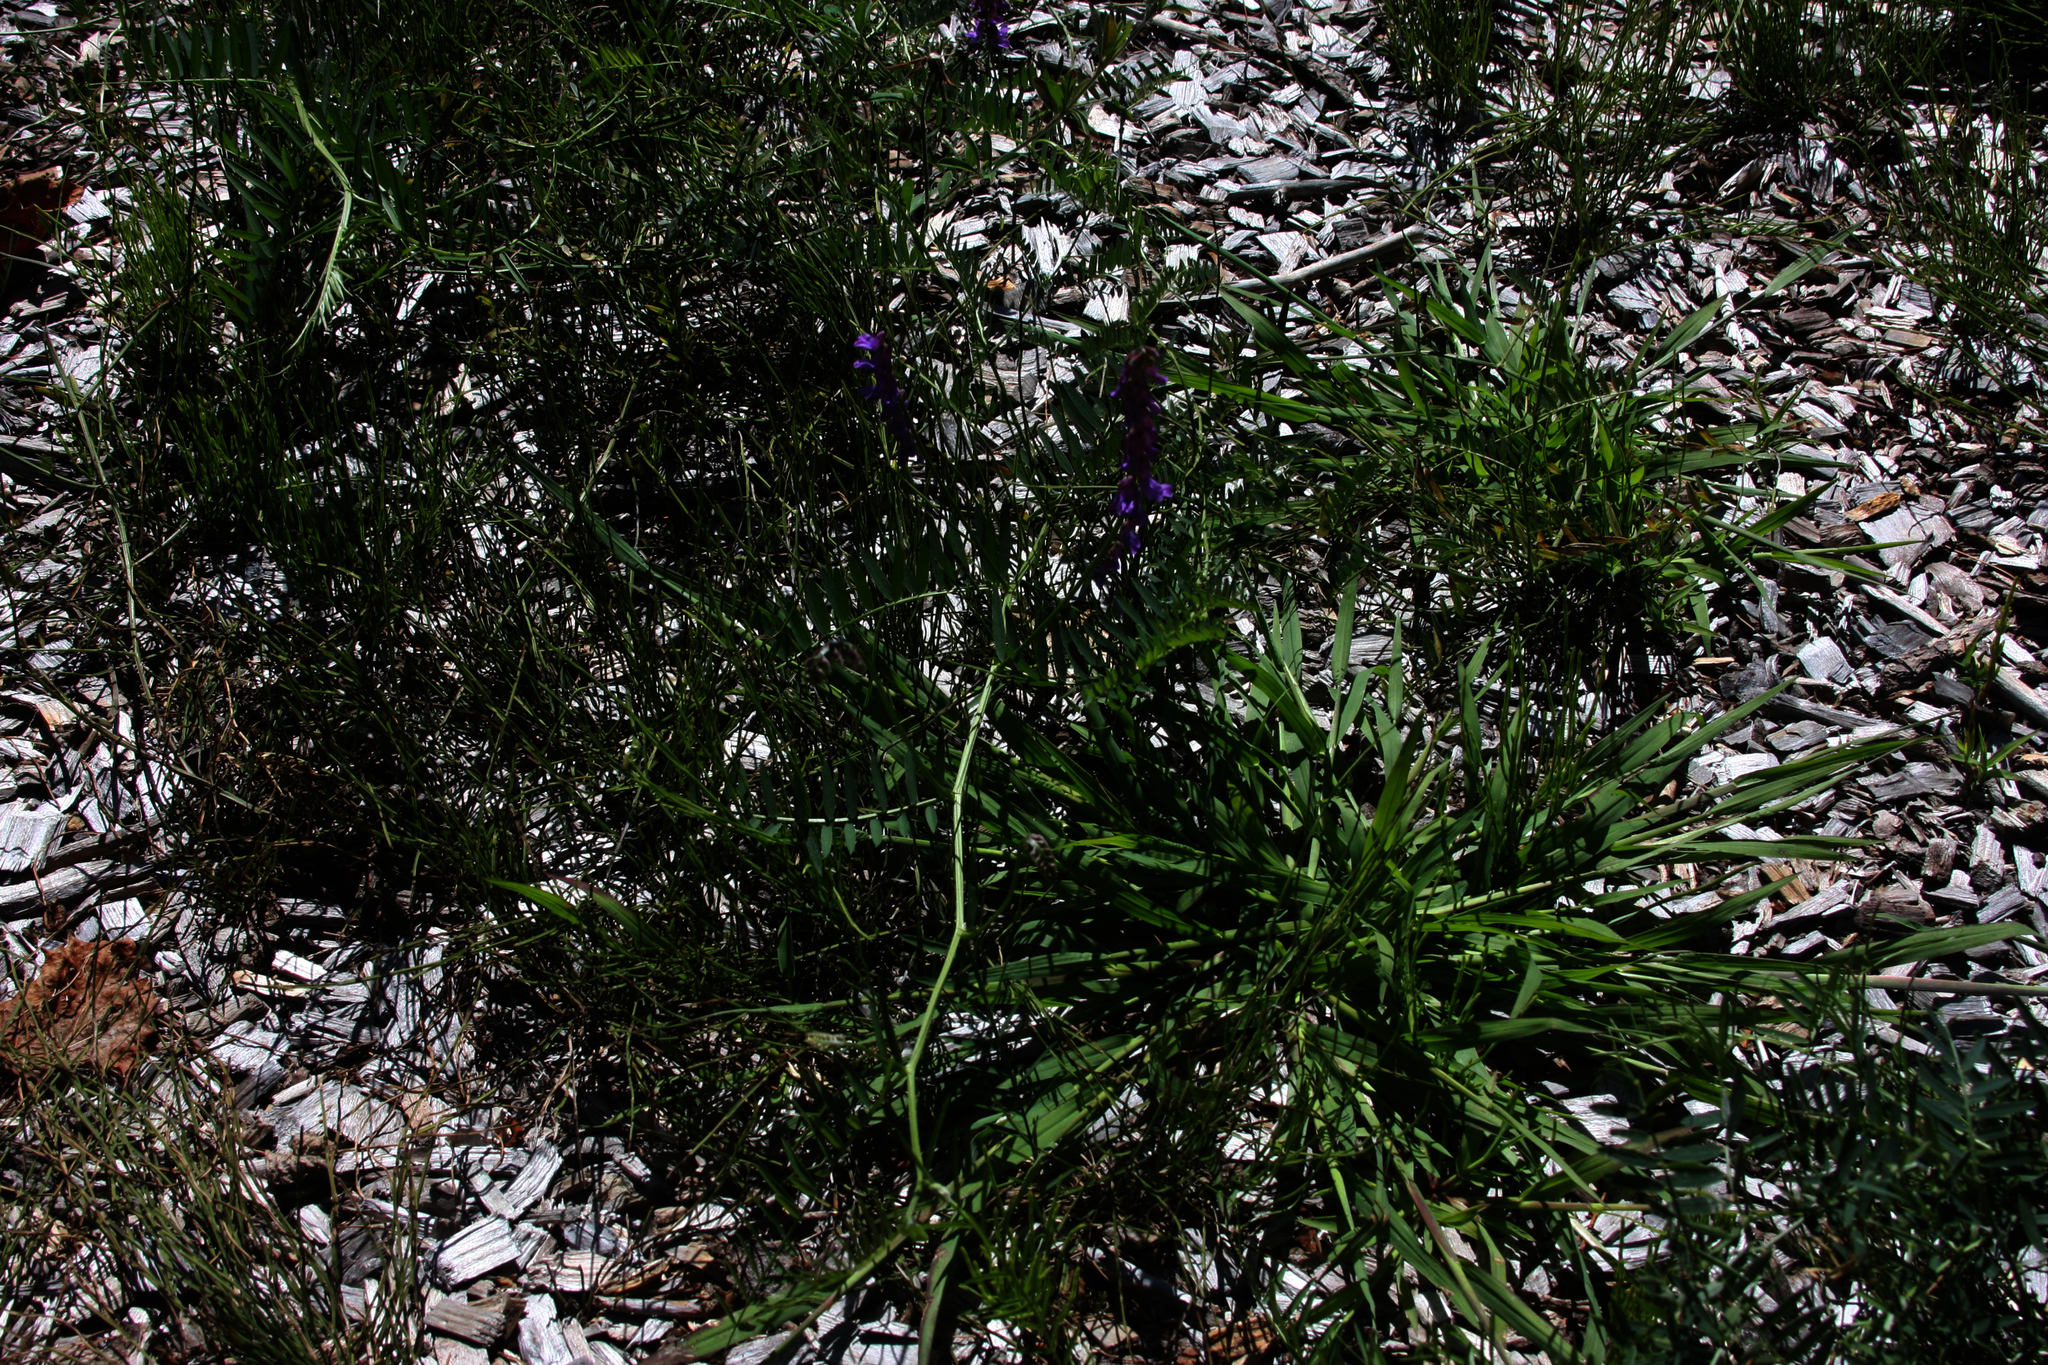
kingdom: Plantae
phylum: Tracheophyta
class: Magnoliopsida
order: Fabales
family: Fabaceae
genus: Vicia
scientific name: Vicia cracca
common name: Bird vetch
